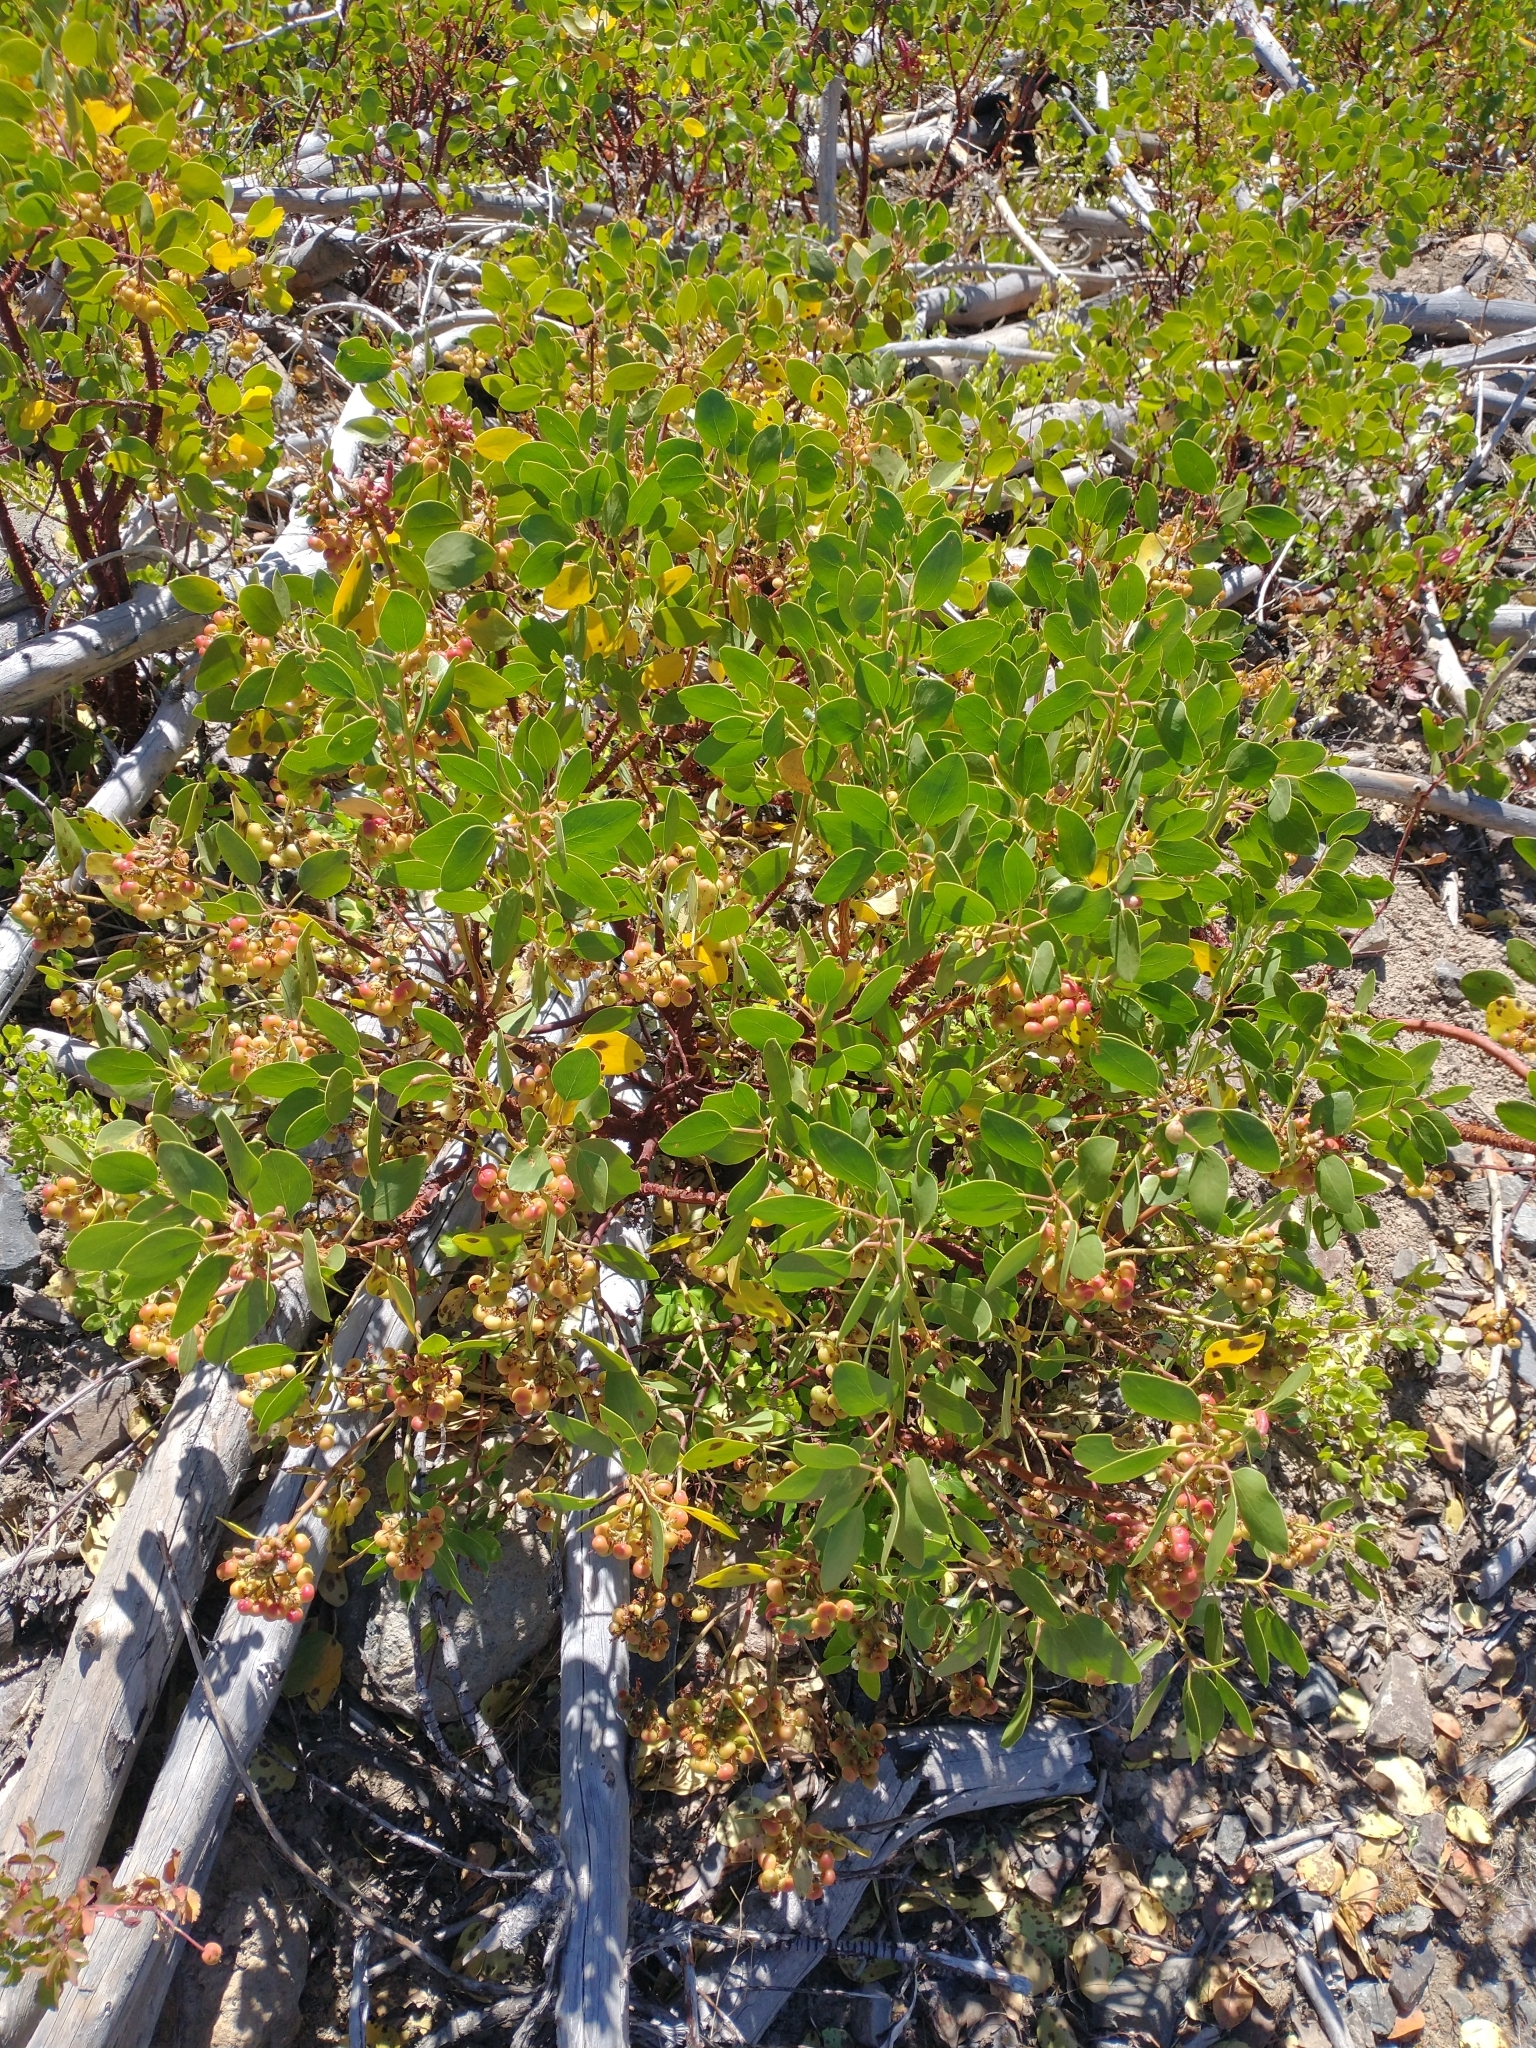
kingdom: Plantae
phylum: Tracheophyta
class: Magnoliopsida
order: Ericales
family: Ericaceae
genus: Arctostaphylos
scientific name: Arctostaphylos patula
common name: Green-leaf manzanita
